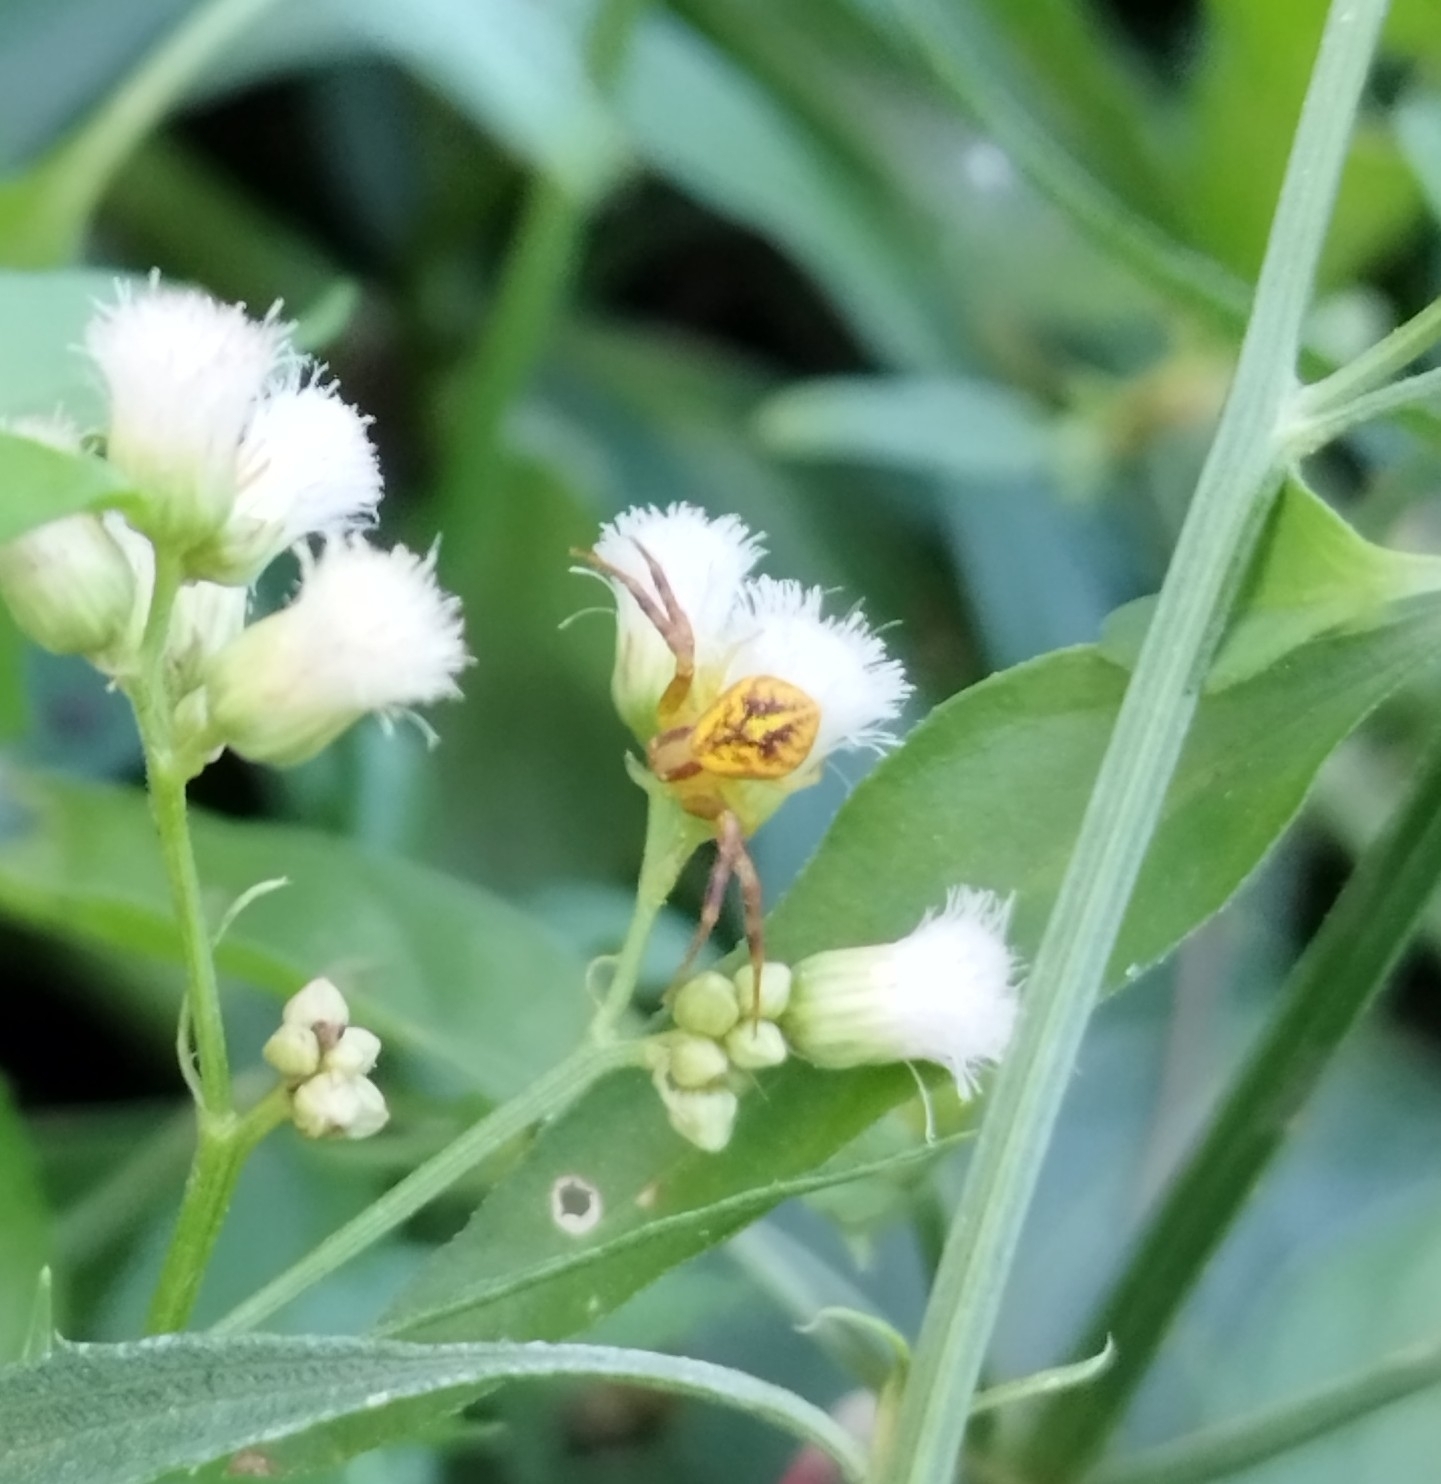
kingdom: Animalia
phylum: Arthropoda
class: Arachnida
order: Araneae
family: Thomisidae
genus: Misumenops
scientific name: Misumenops
